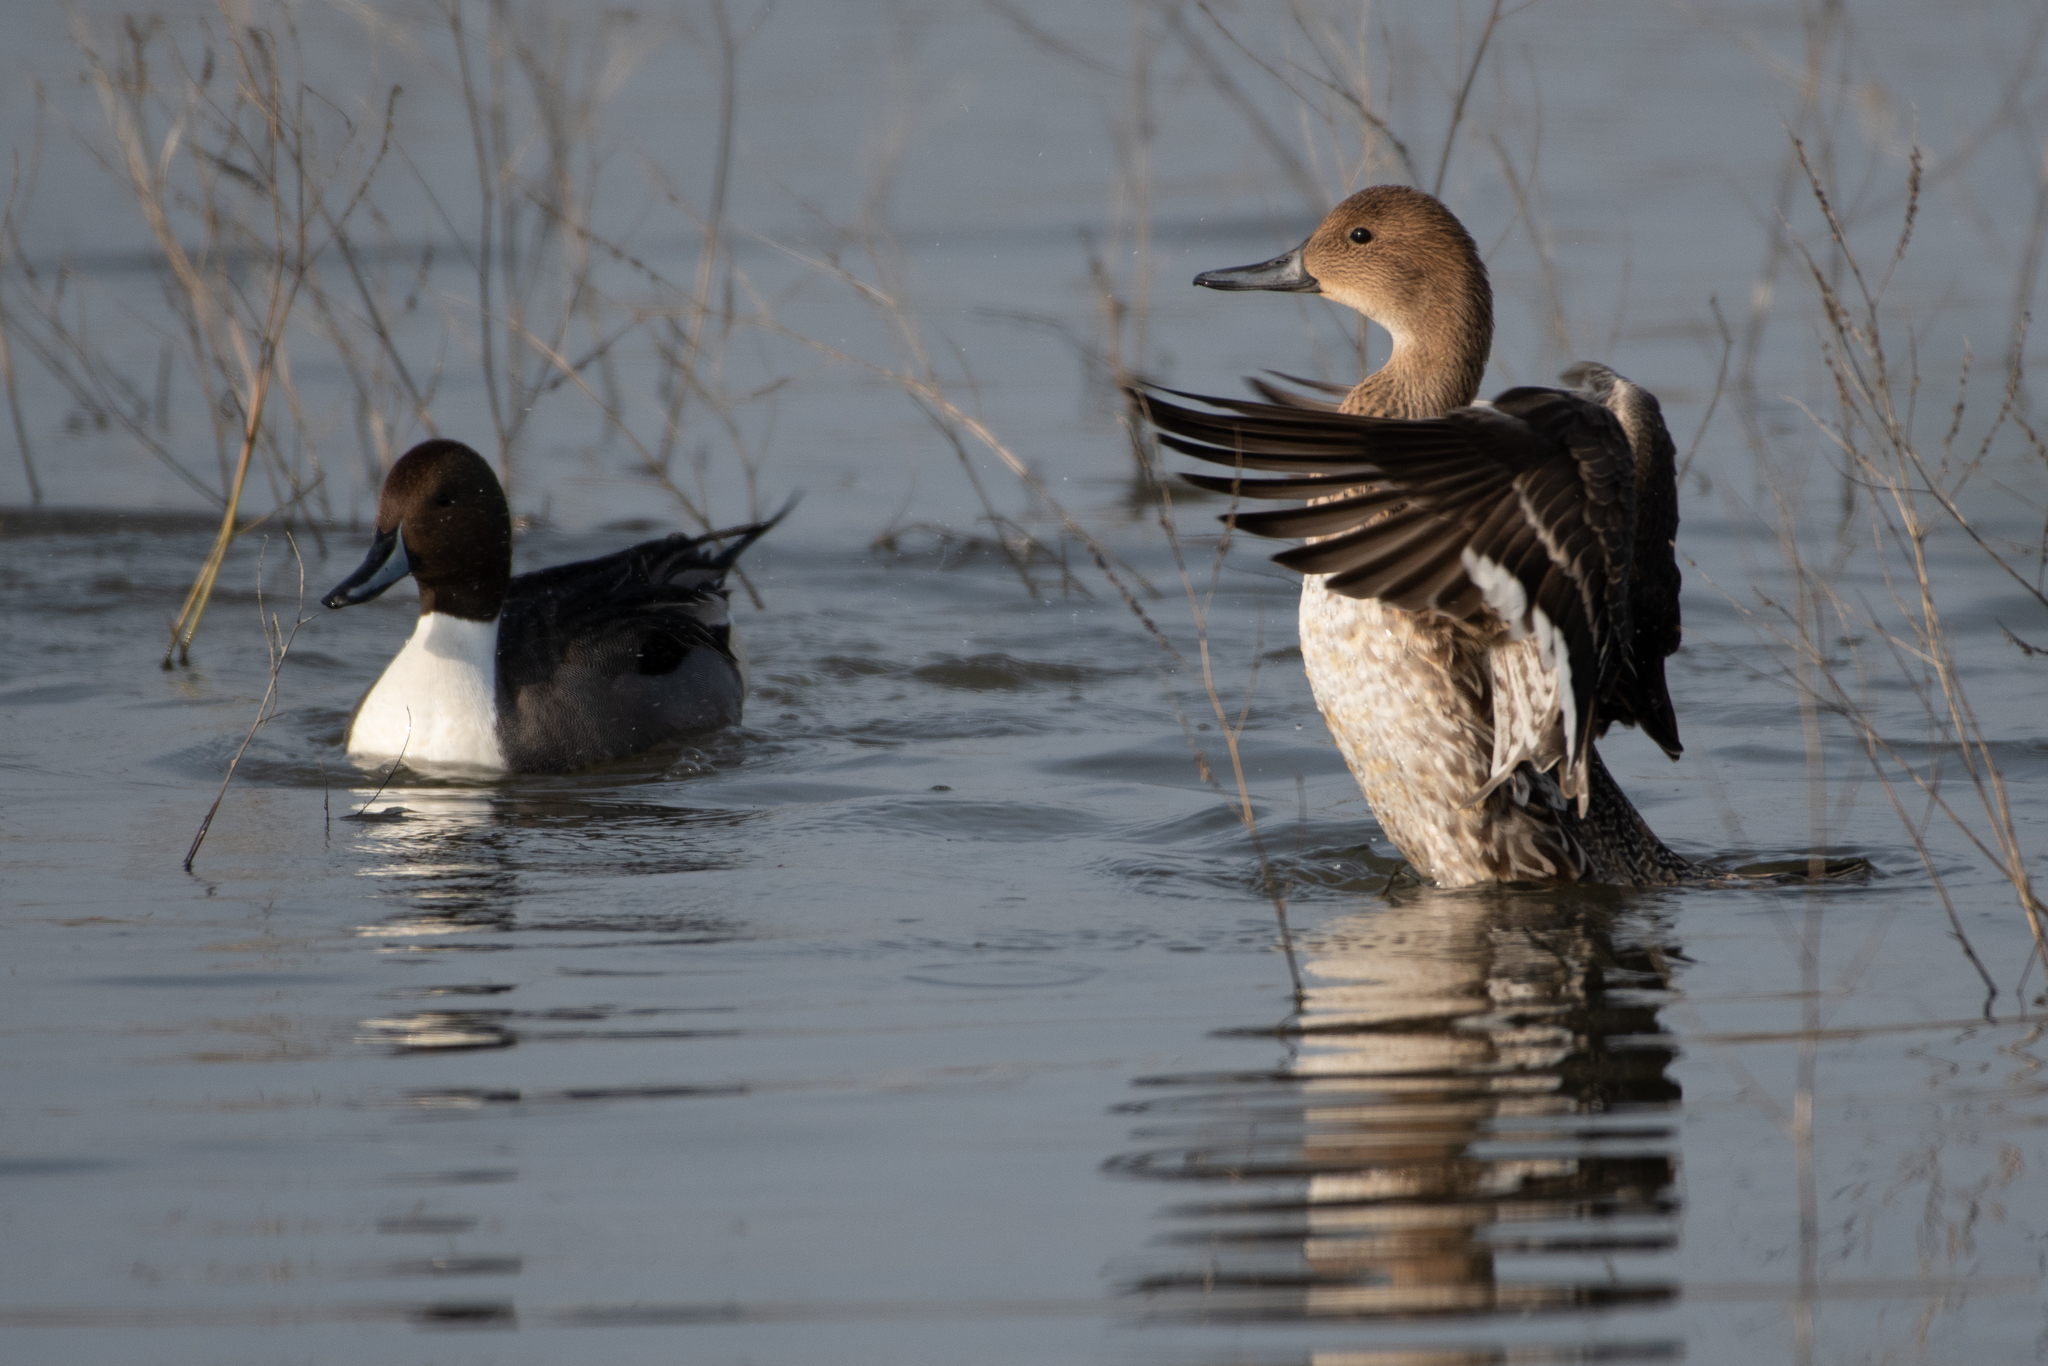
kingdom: Animalia
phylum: Chordata
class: Aves
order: Anseriformes
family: Anatidae
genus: Anas
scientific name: Anas acuta
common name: Northern pintail
